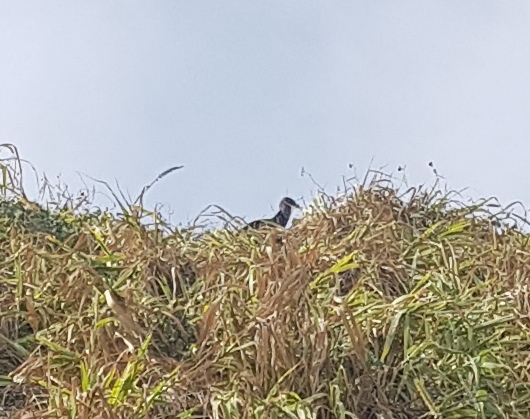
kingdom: Animalia
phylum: Chordata
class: Aves
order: Accipitriformes
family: Cathartidae
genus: Coragyps
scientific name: Coragyps atratus
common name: Black vulture
